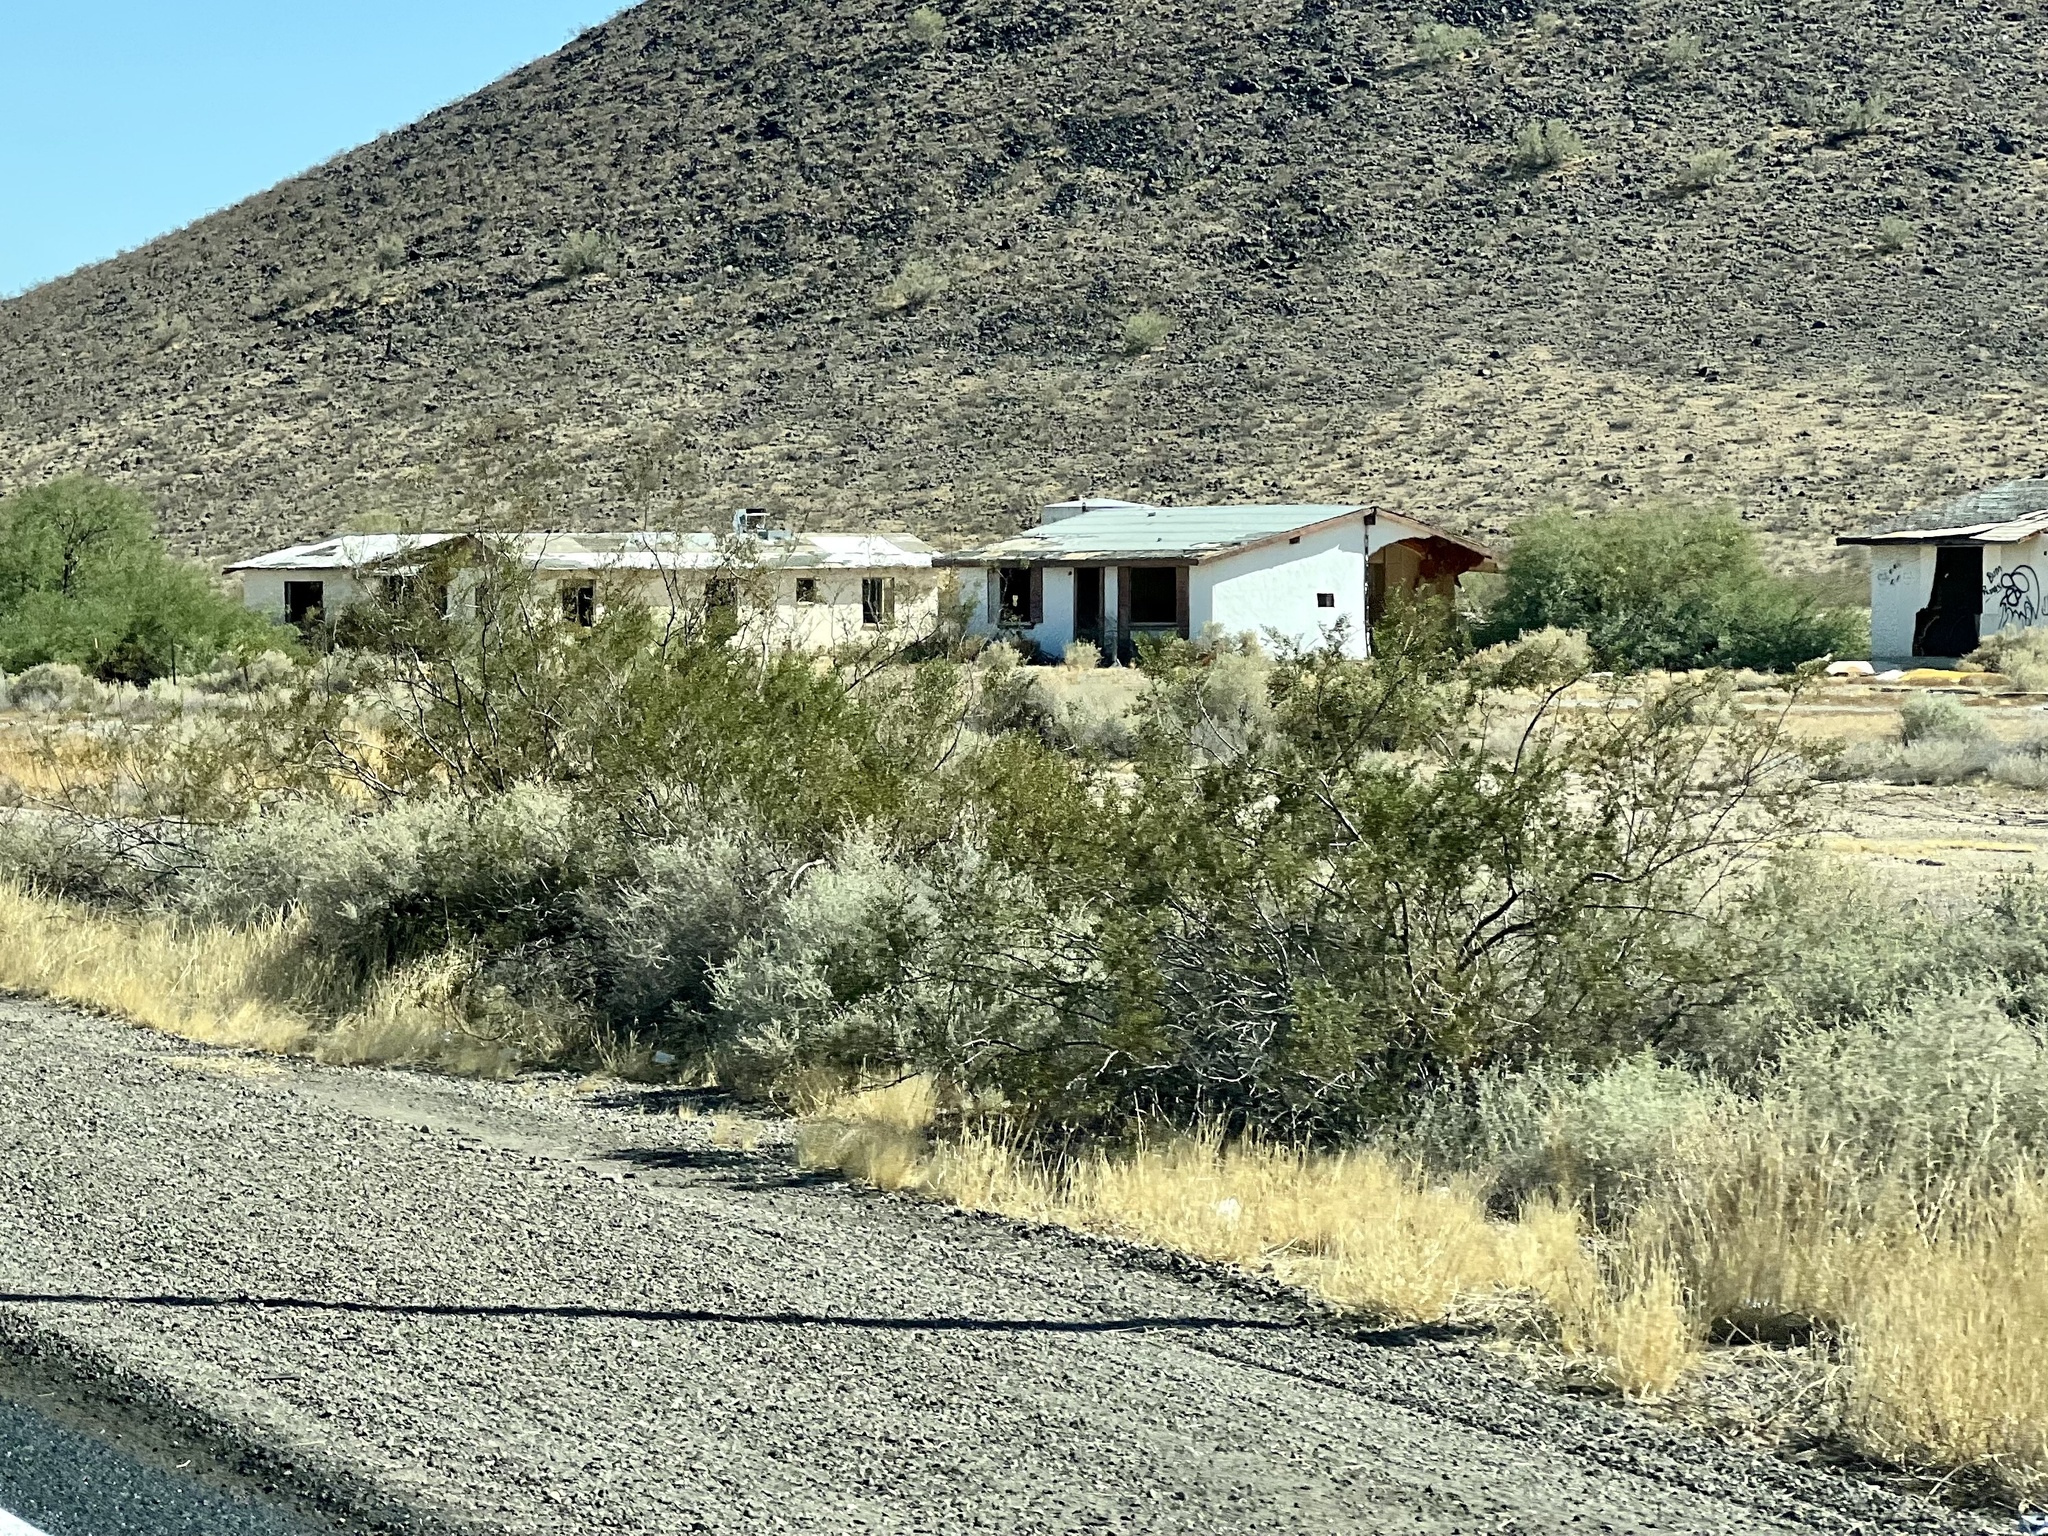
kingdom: Plantae
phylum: Tracheophyta
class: Magnoliopsida
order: Zygophyllales
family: Zygophyllaceae
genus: Larrea
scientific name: Larrea tridentata
